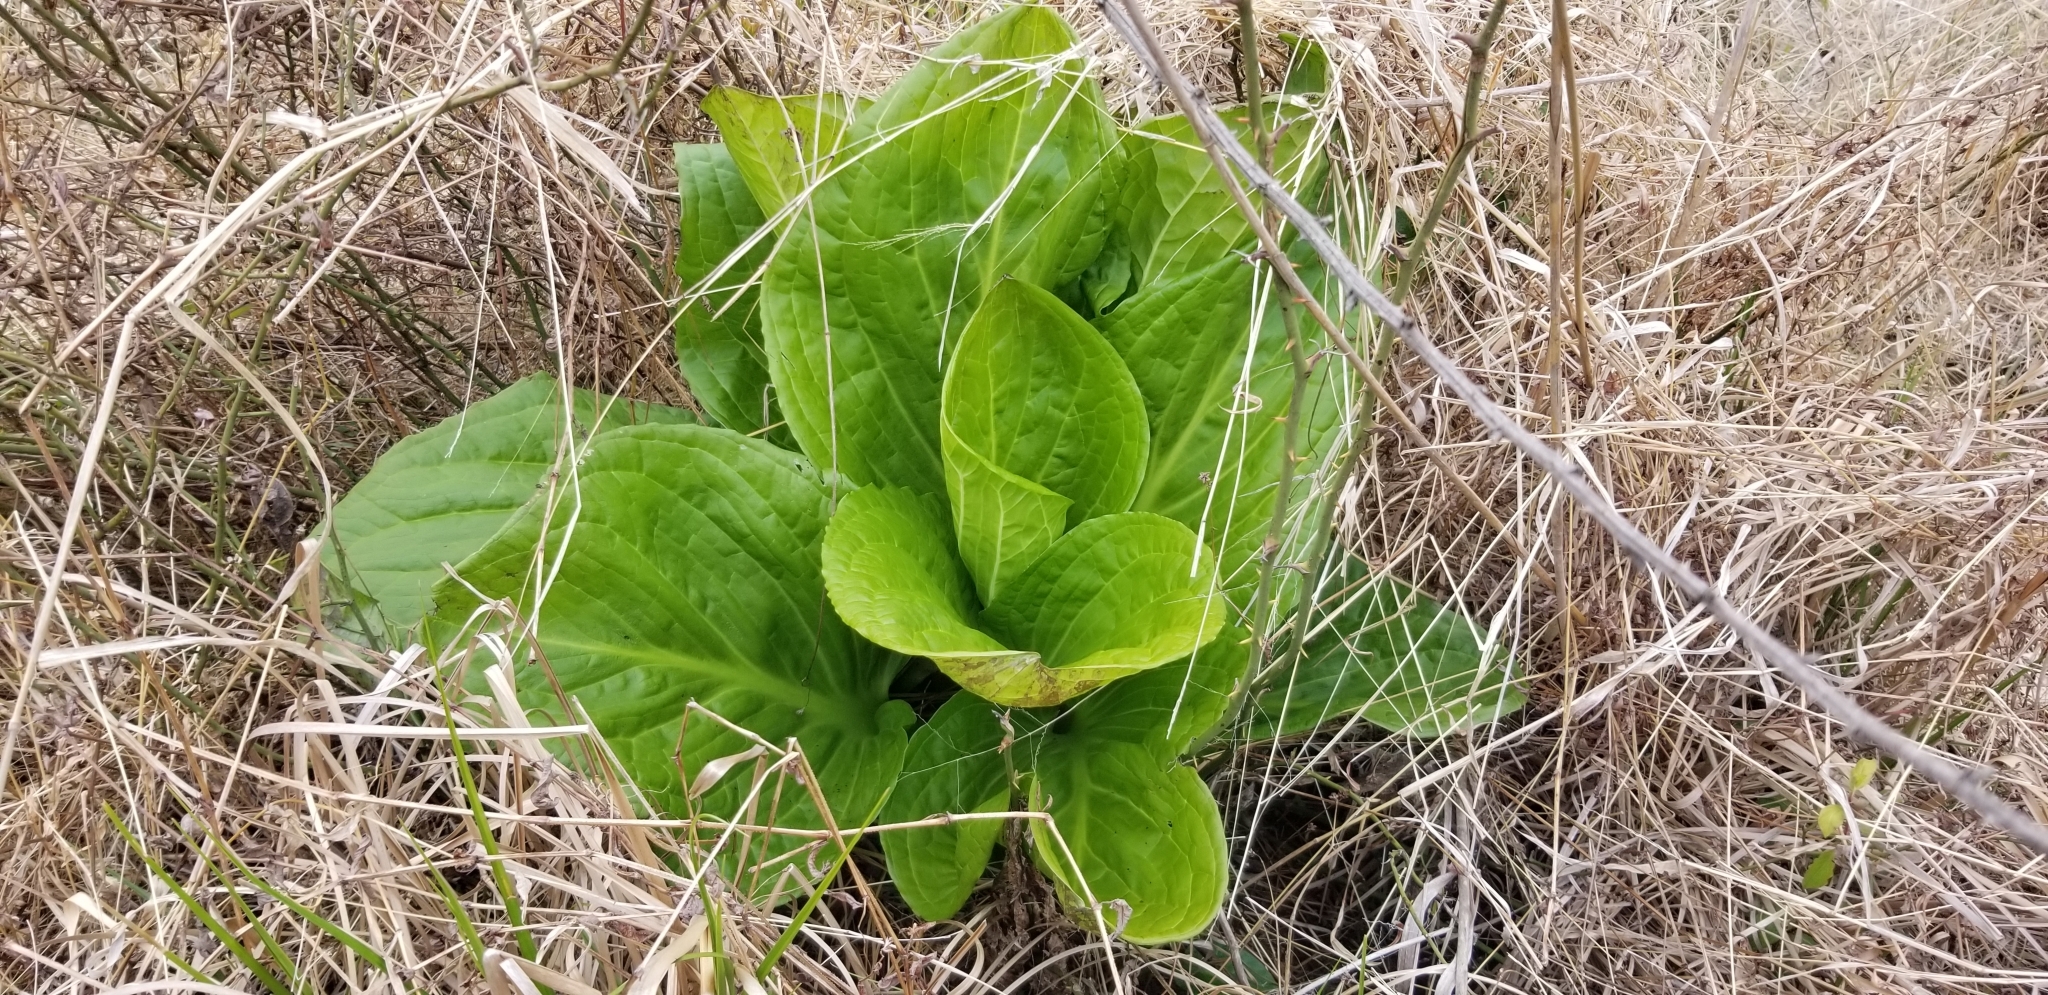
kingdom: Plantae
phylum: Tracheophyta
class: Liliopsida
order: Alismatales
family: Araceae
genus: Symplocarpus
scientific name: Symplocarpus foetidus
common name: Eastern skunk cabbage
